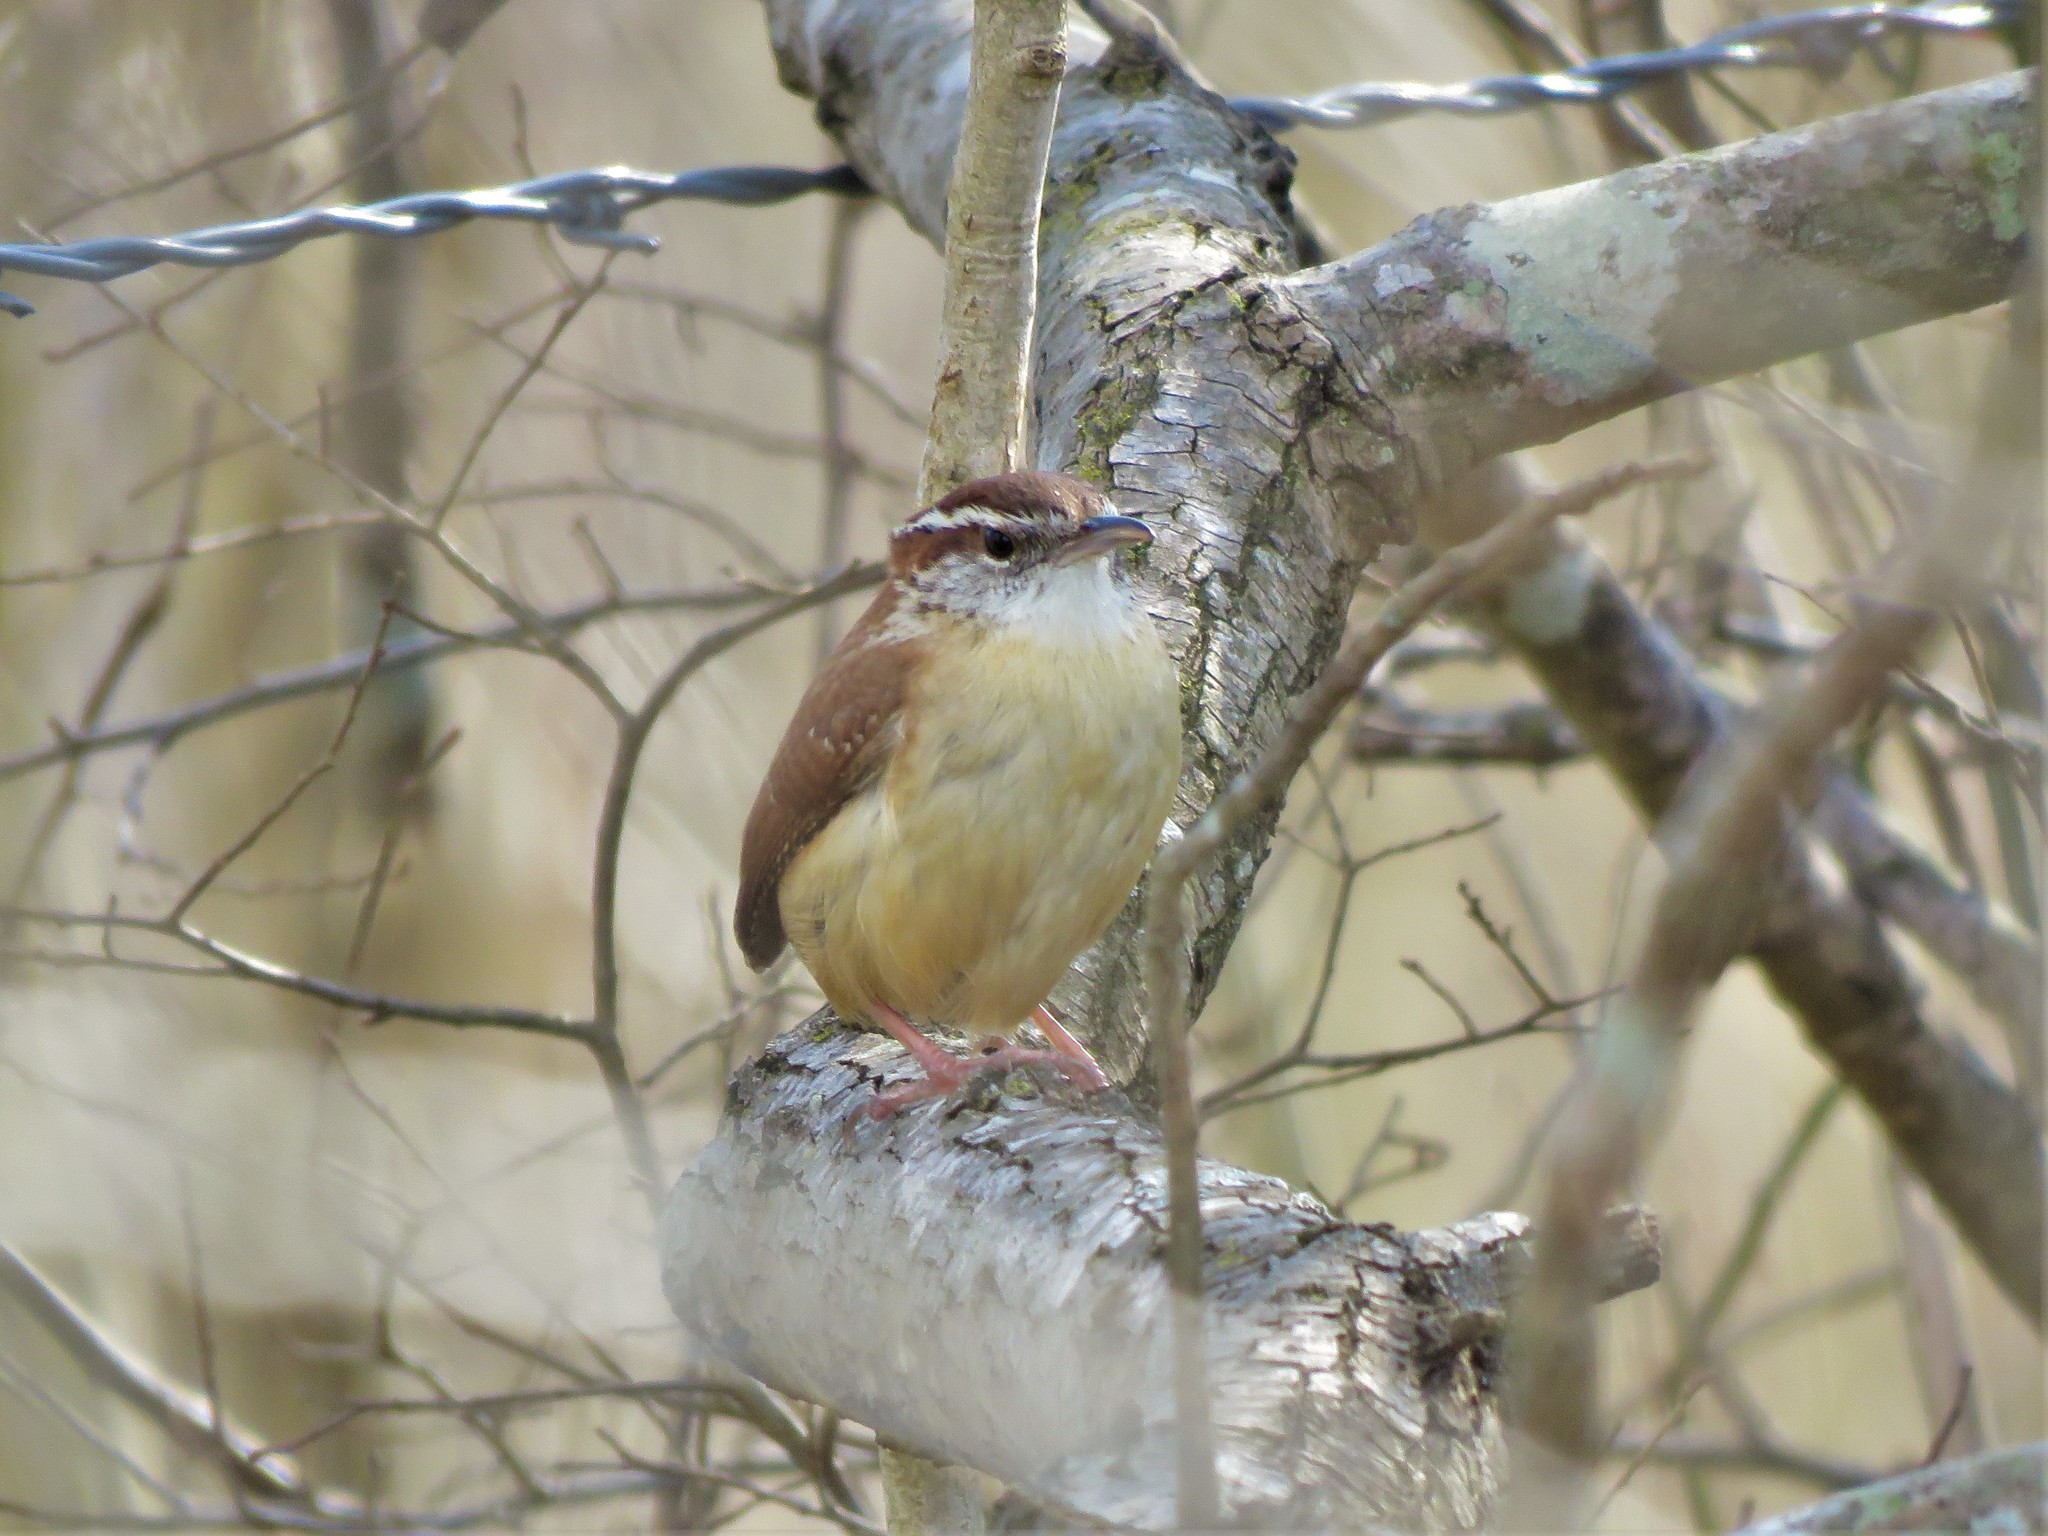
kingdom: Animalia
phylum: Chordata
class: Aves
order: Passeriformes
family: Troglodytidae
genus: Thryothorus
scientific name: Thryothorus ludovicianus
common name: Carolina wren
